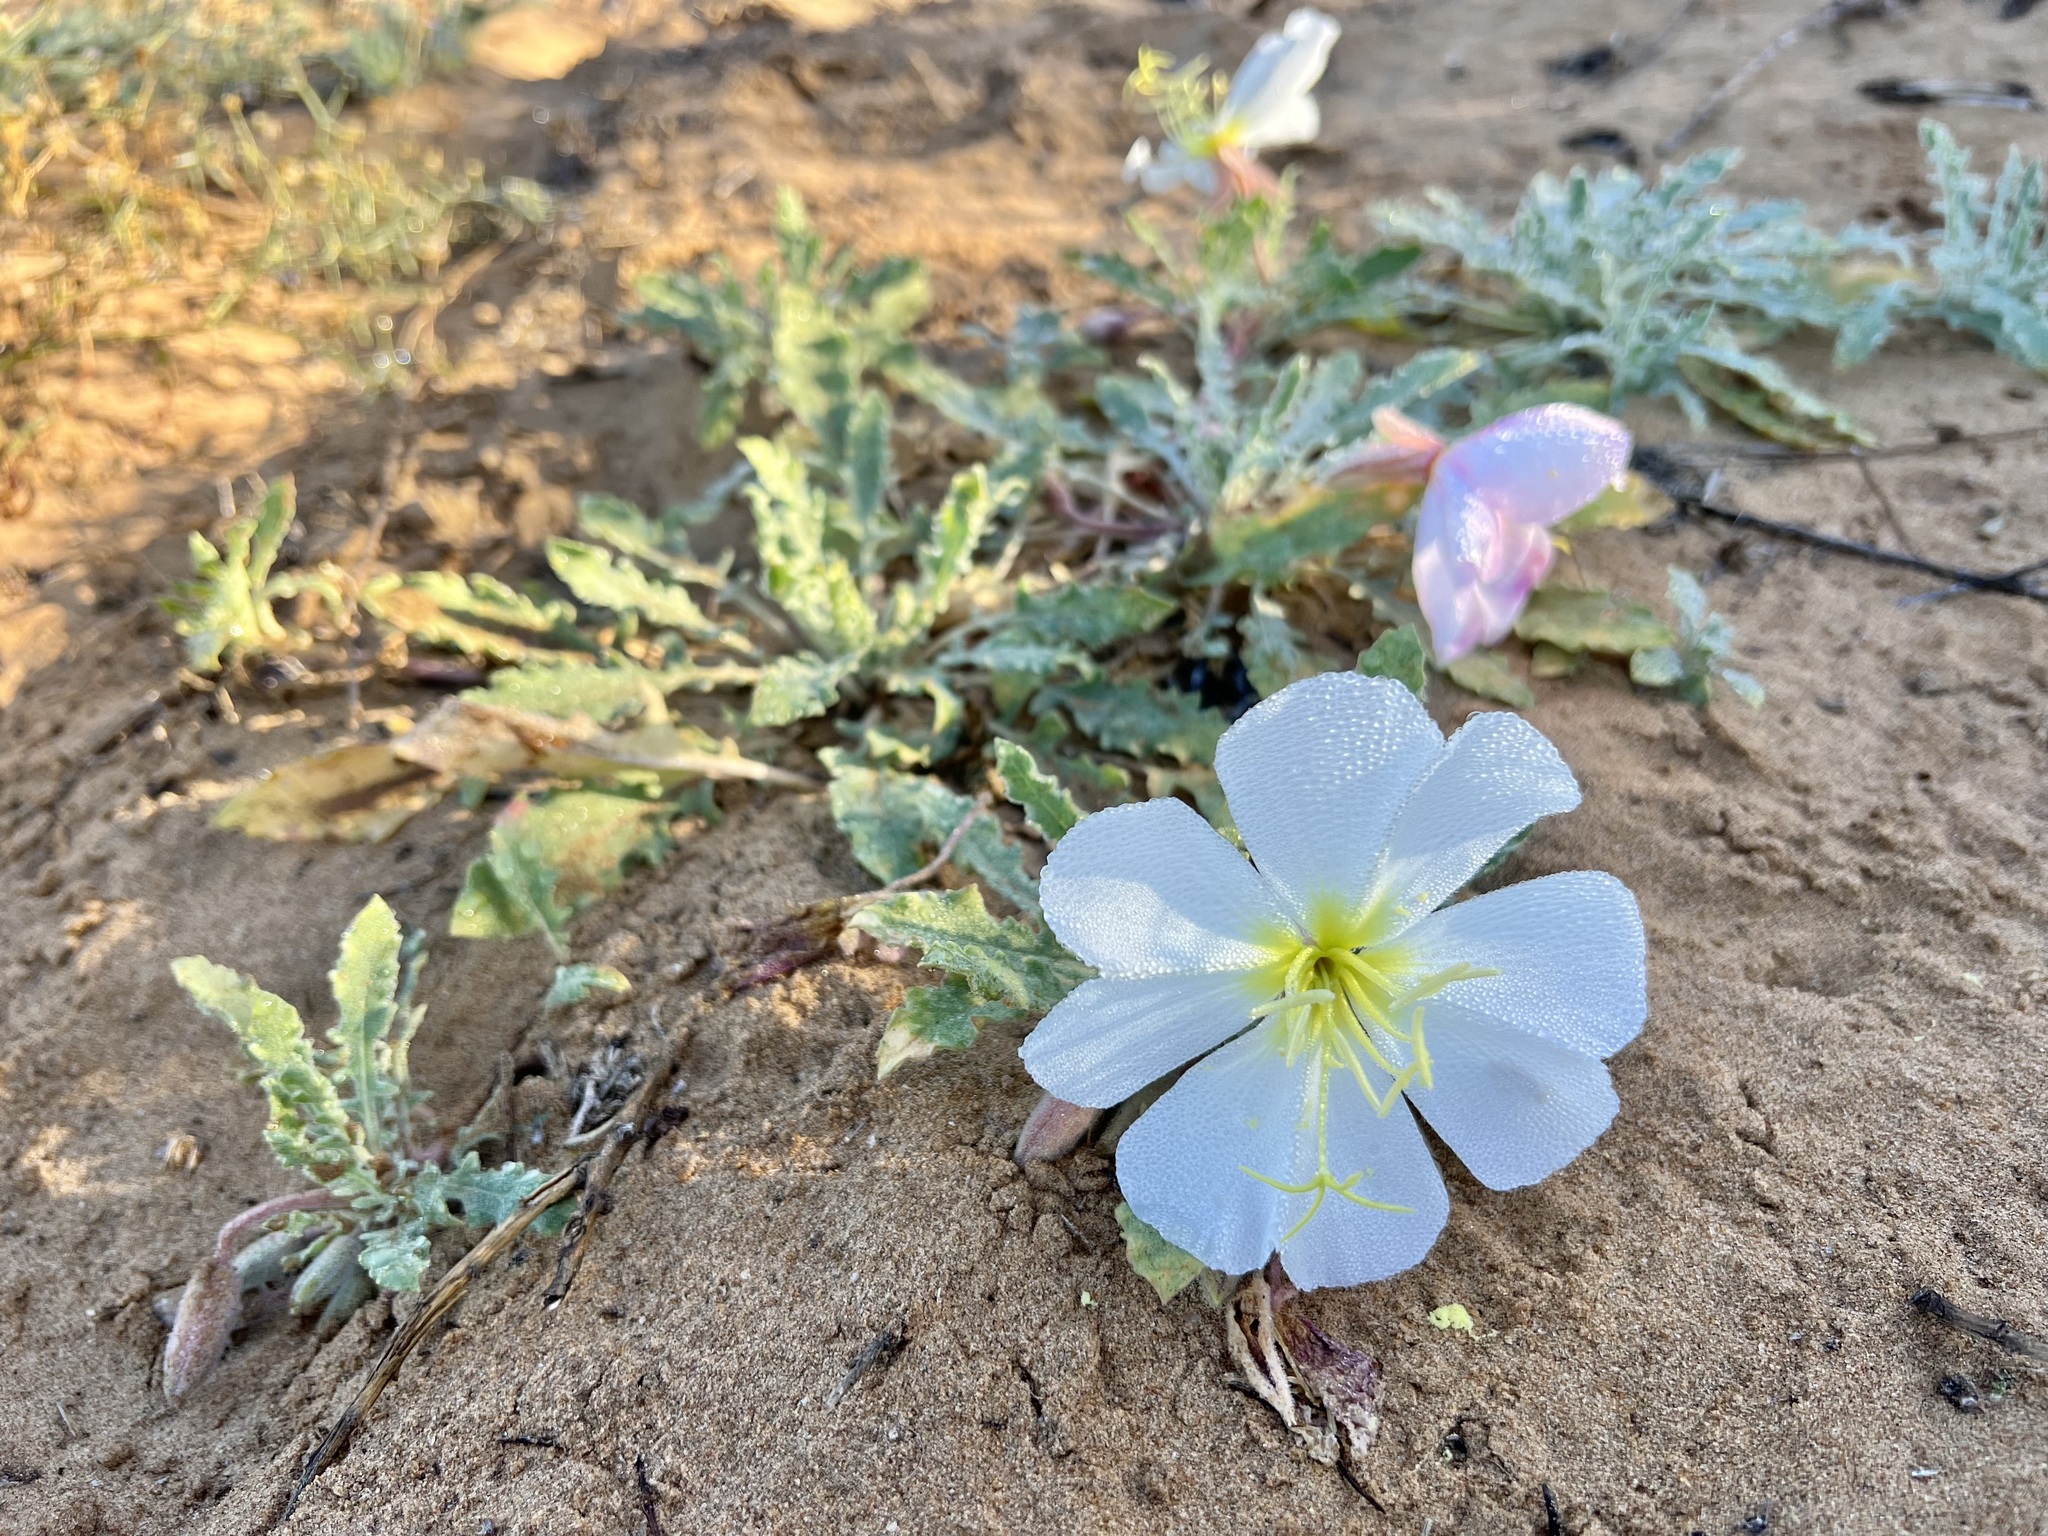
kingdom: Plantae
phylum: Tracheophyta
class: Magnoliopsida
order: Myrtales
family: Onagraceae
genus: Oenothera
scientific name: Oenothera deltoides
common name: Basket evening-primrose
